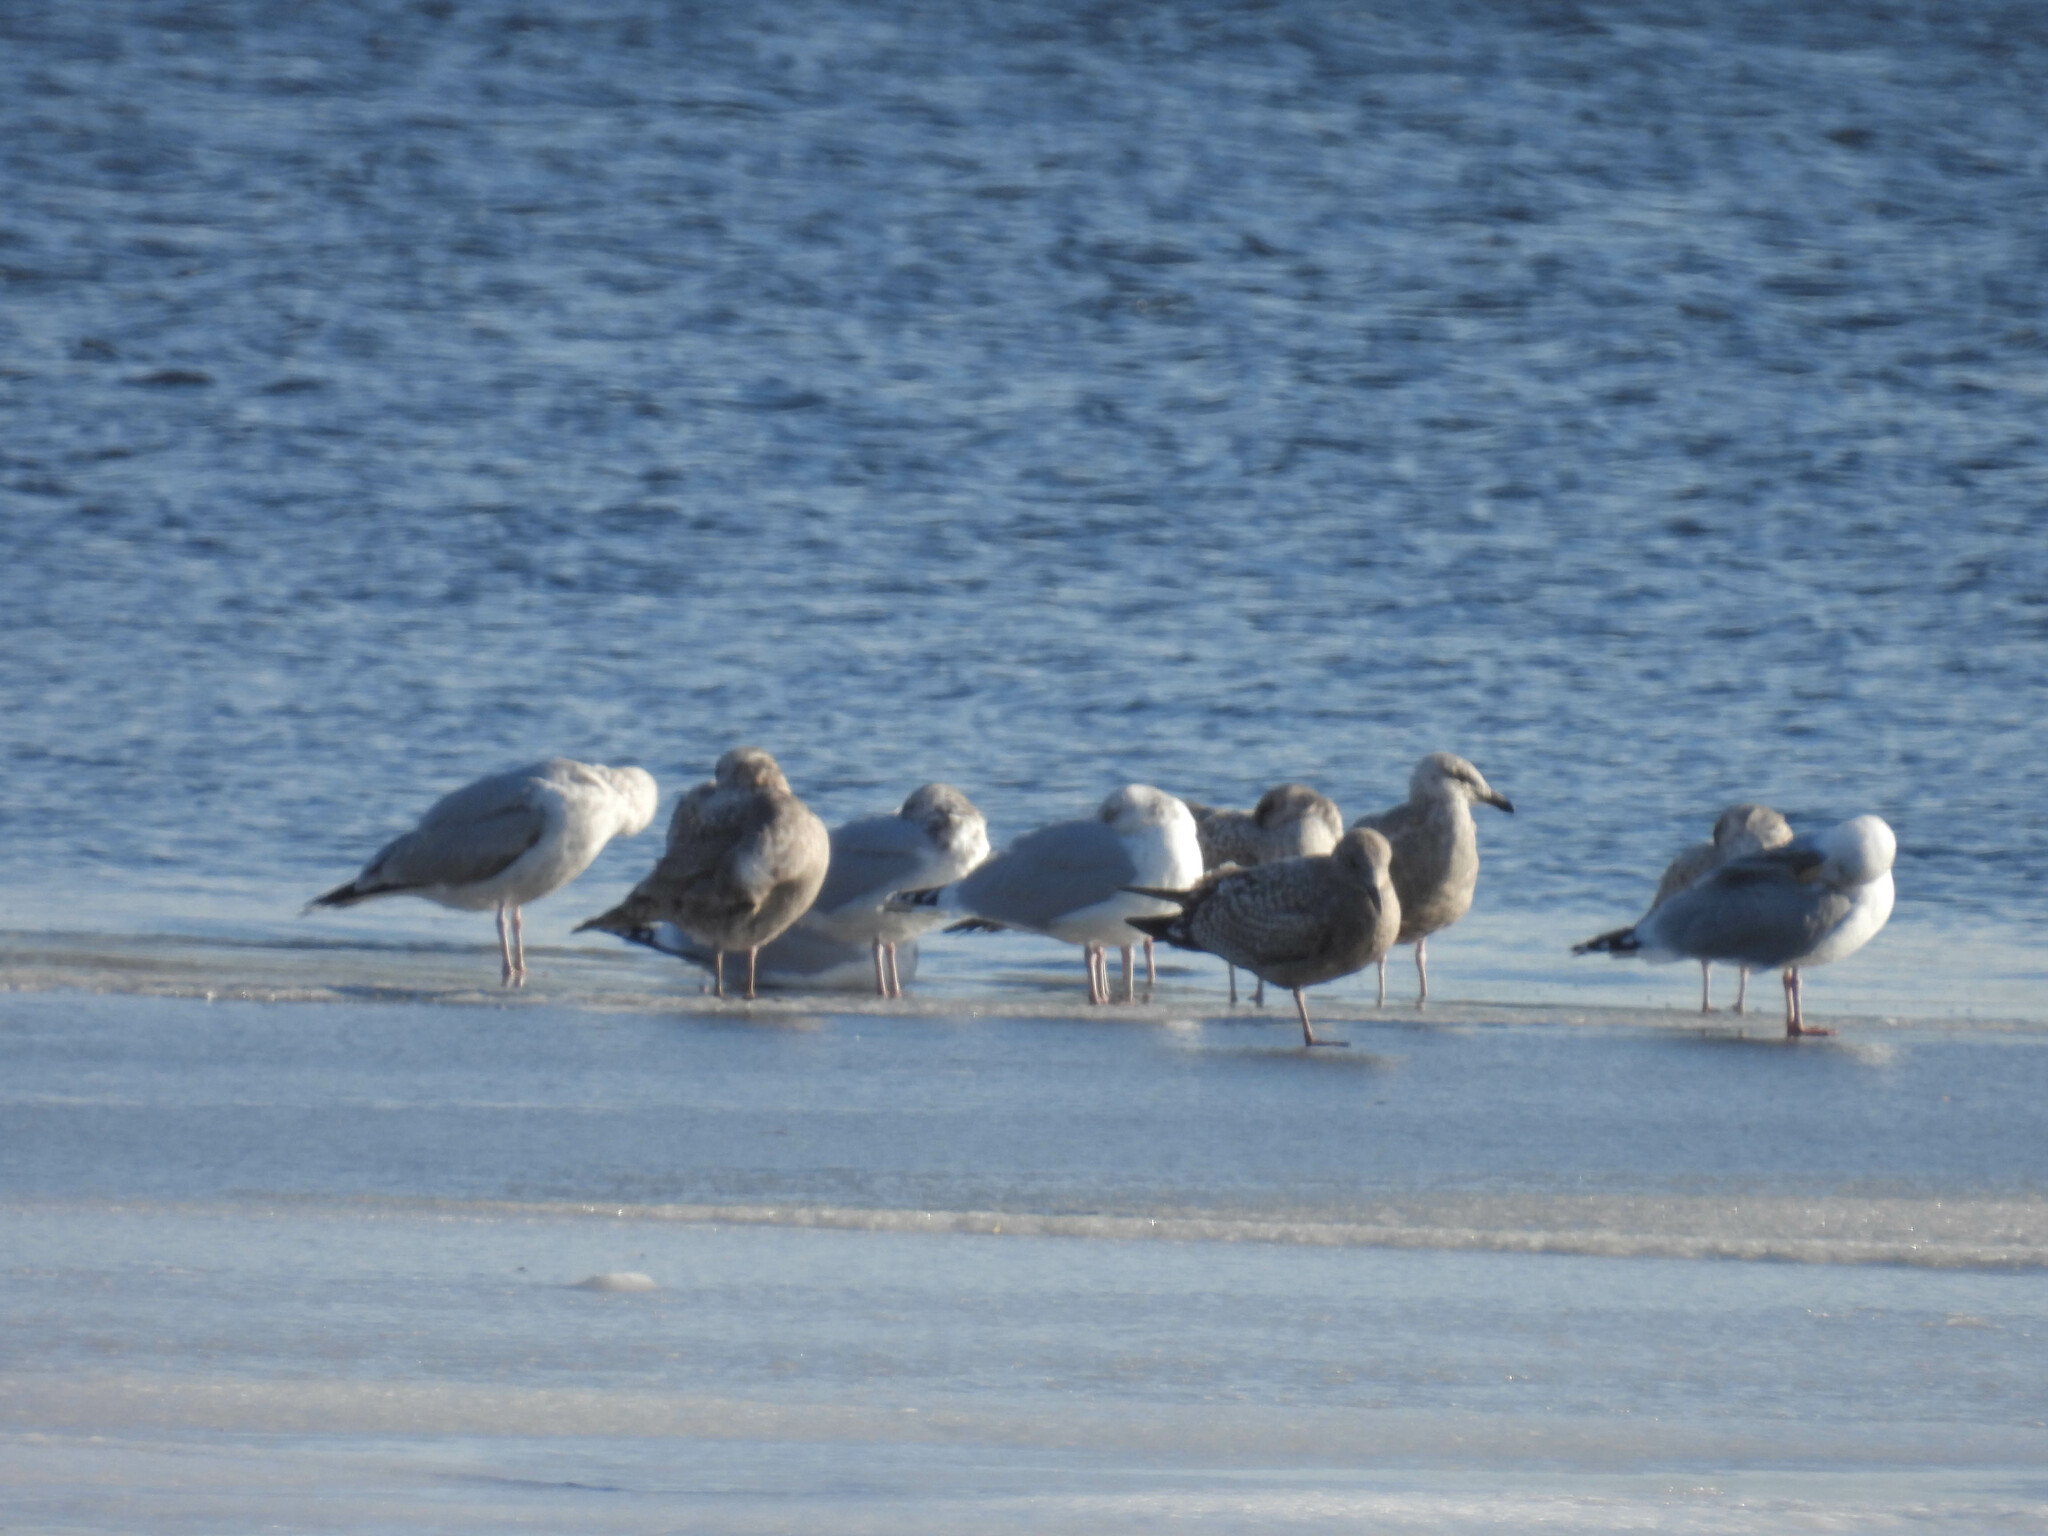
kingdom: Animalia
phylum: Chordata
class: Aves
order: Charadriiformes
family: Laridae
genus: Larus
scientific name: Larus argentatus
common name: Herring gull
